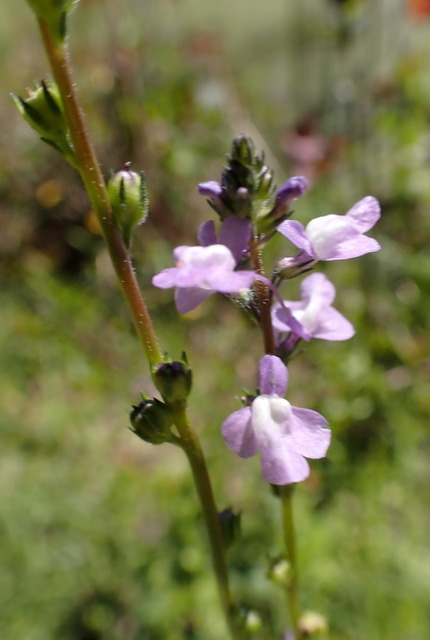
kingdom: Plantae
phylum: Tracheophyta
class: Magnoliopsida
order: Lamiales
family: Plantaginaceae
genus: Nuttallanthus
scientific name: Nuttallanthus canadensis
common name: Blue toadflax
